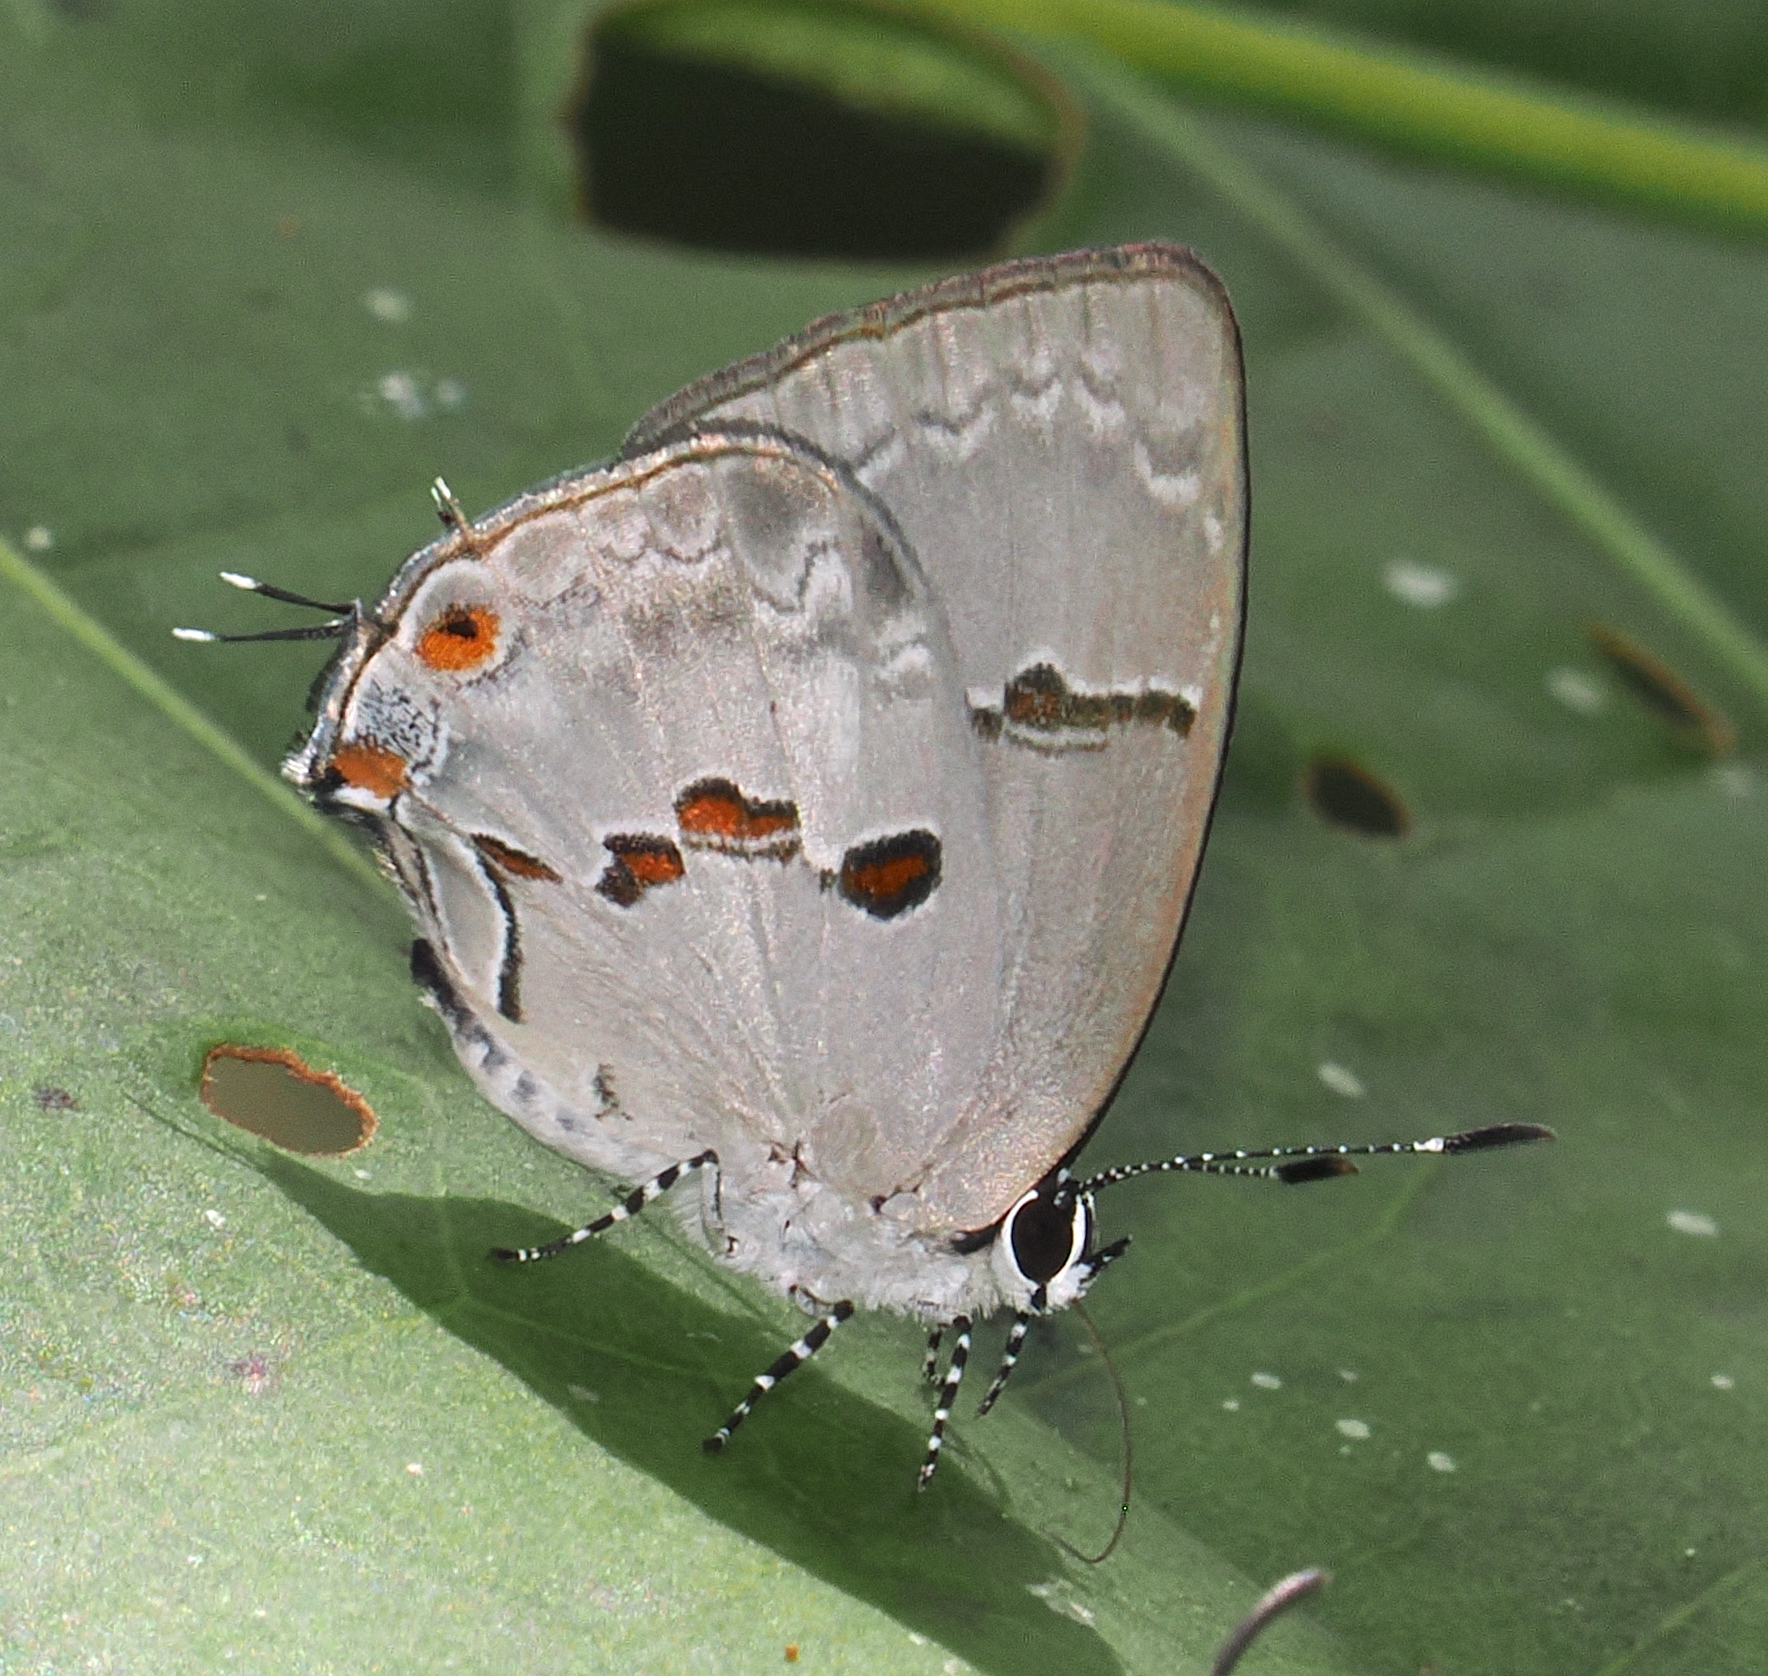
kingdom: Animalia
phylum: Arthropoda
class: Insecta
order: Lepidoptera
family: Lycaenidae
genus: Thecla
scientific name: Thecla carnica
